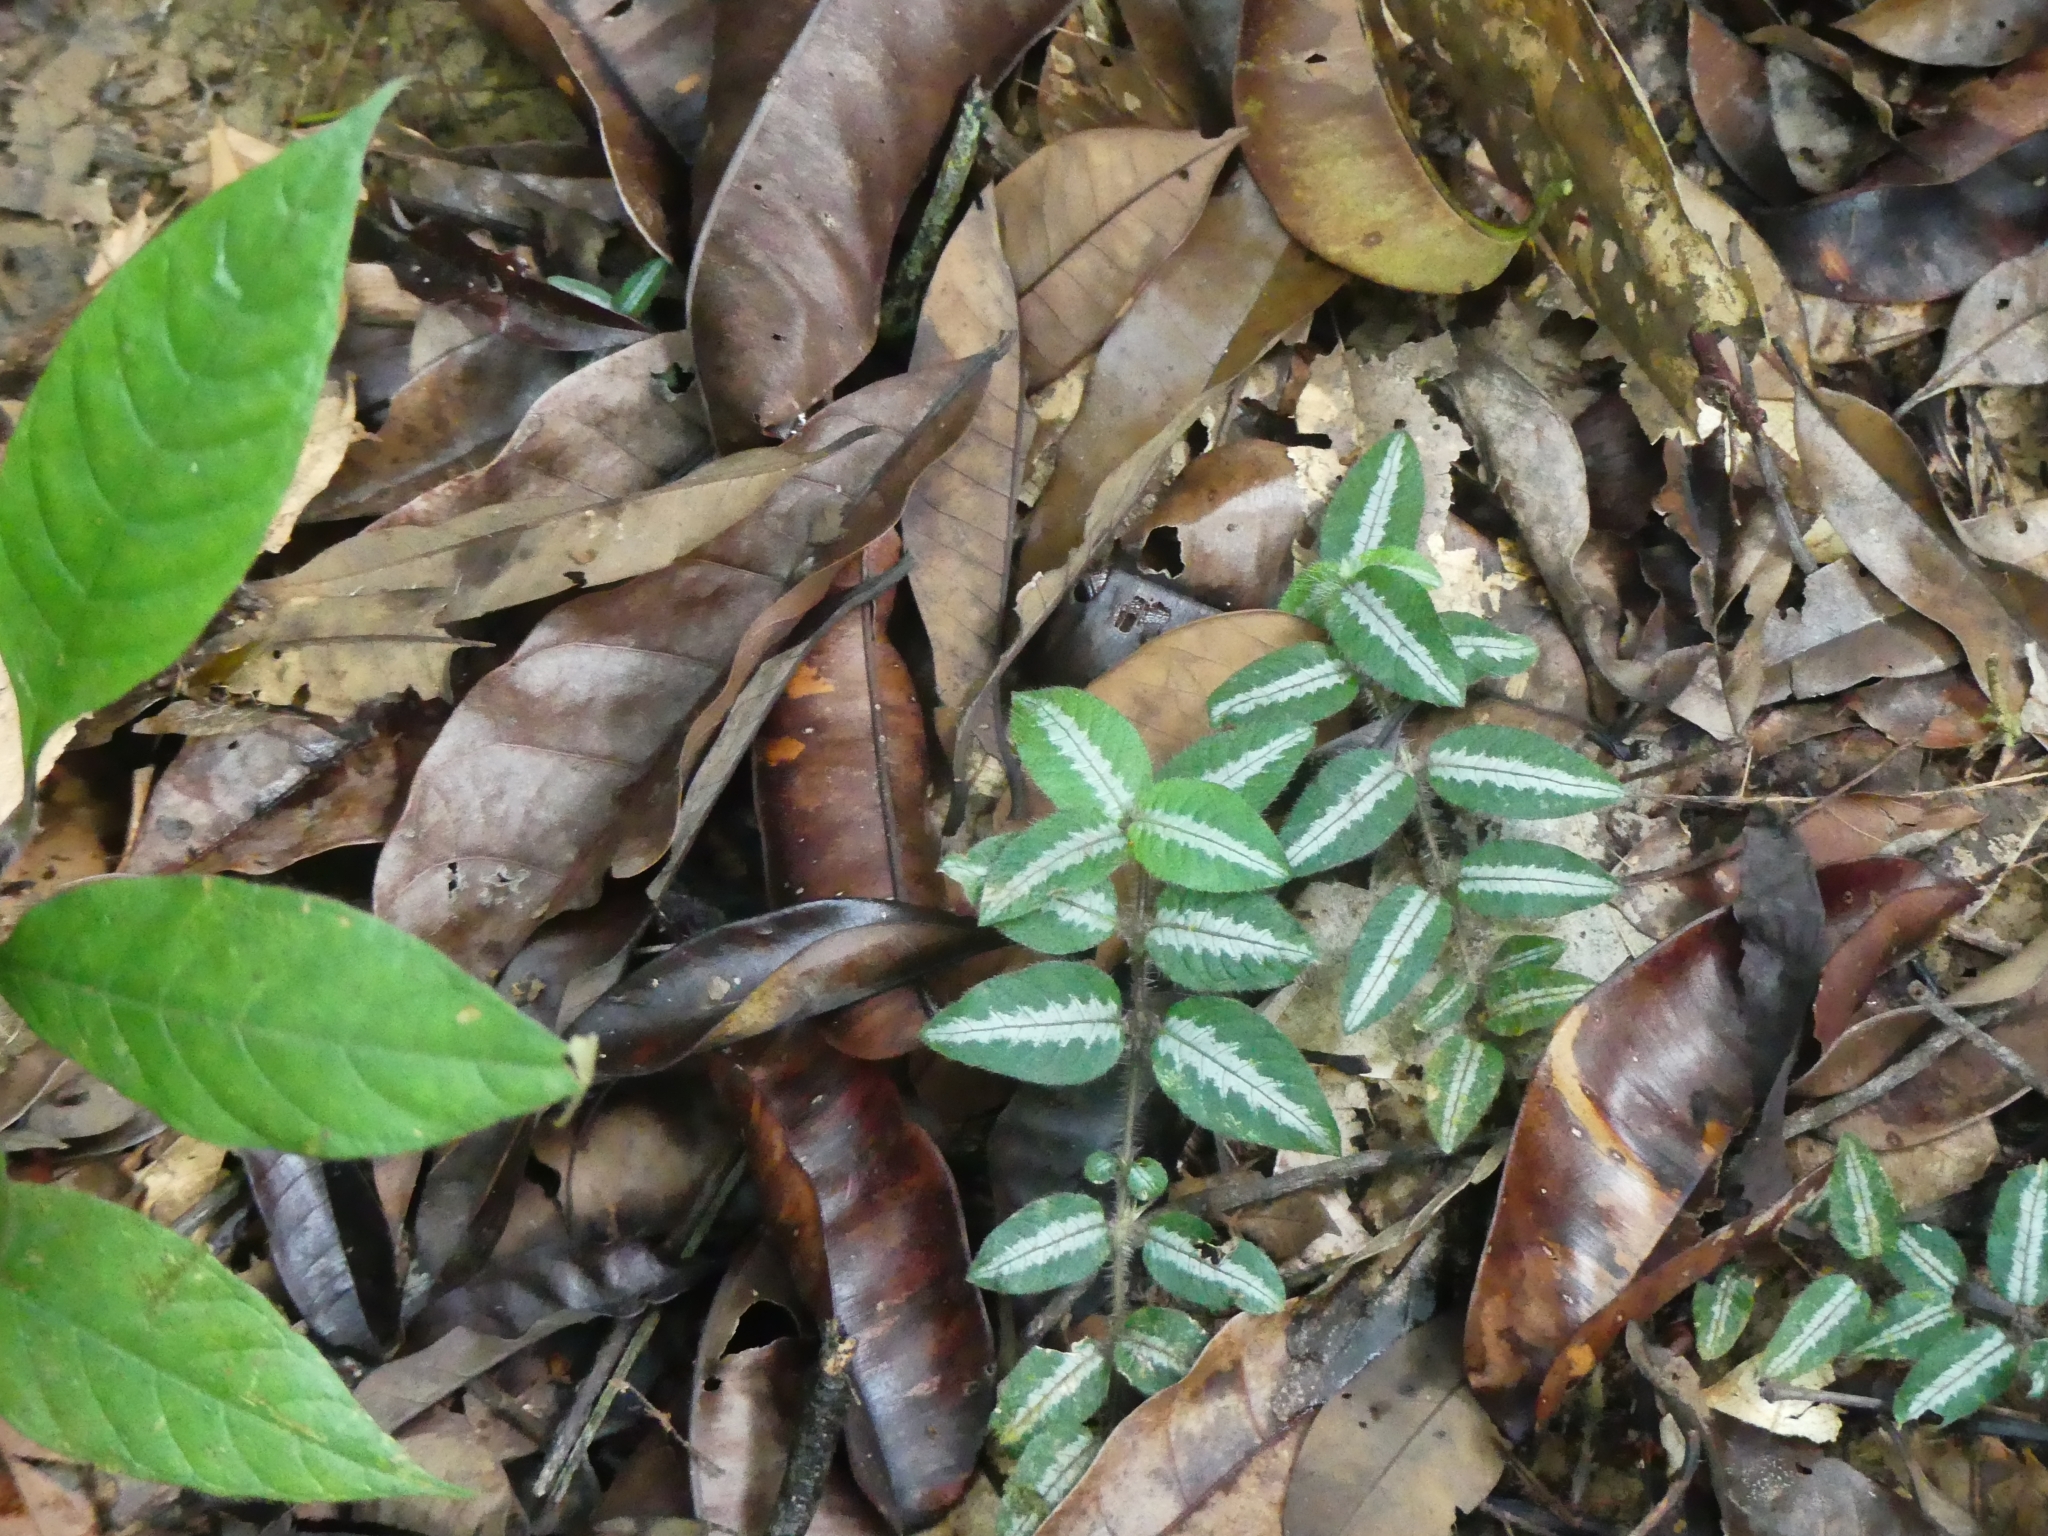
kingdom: Plantae
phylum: Tracheophyta
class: Magnoliopsida
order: Gentianales
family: Rubiaceae
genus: Palicourea
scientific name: Palicourea debilis
